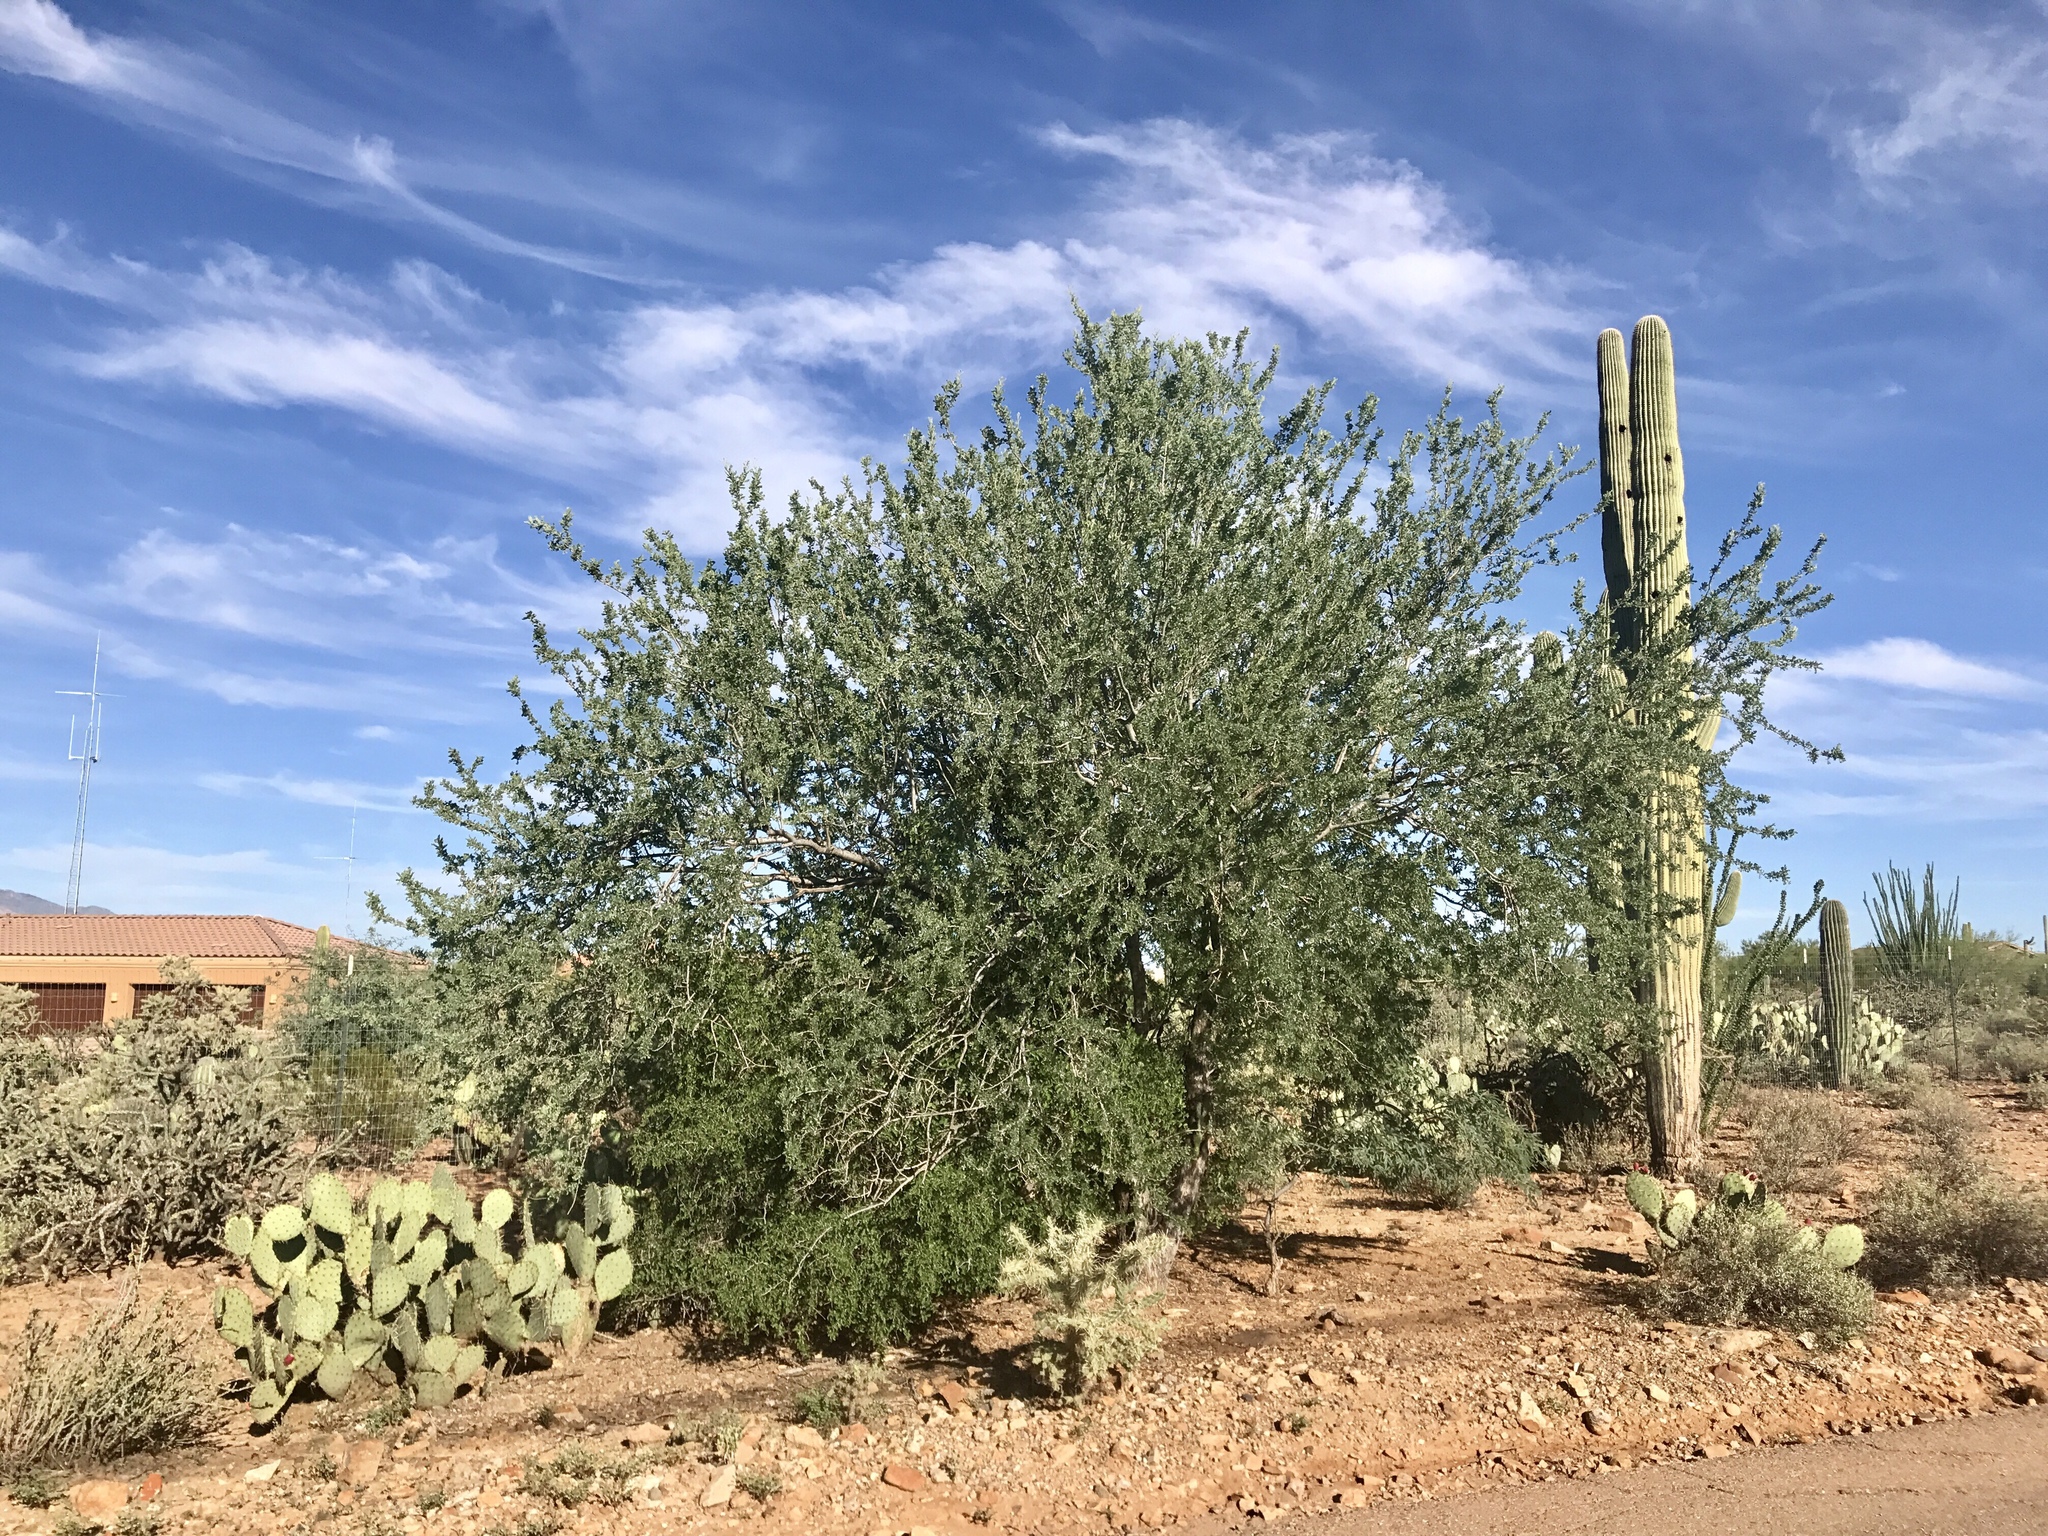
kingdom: Plantae
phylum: Tracheophyta
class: Magnoliopsida
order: Fabales
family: Fabaceae
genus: Olneya
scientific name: Olneya tesota
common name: Desert ironwood
